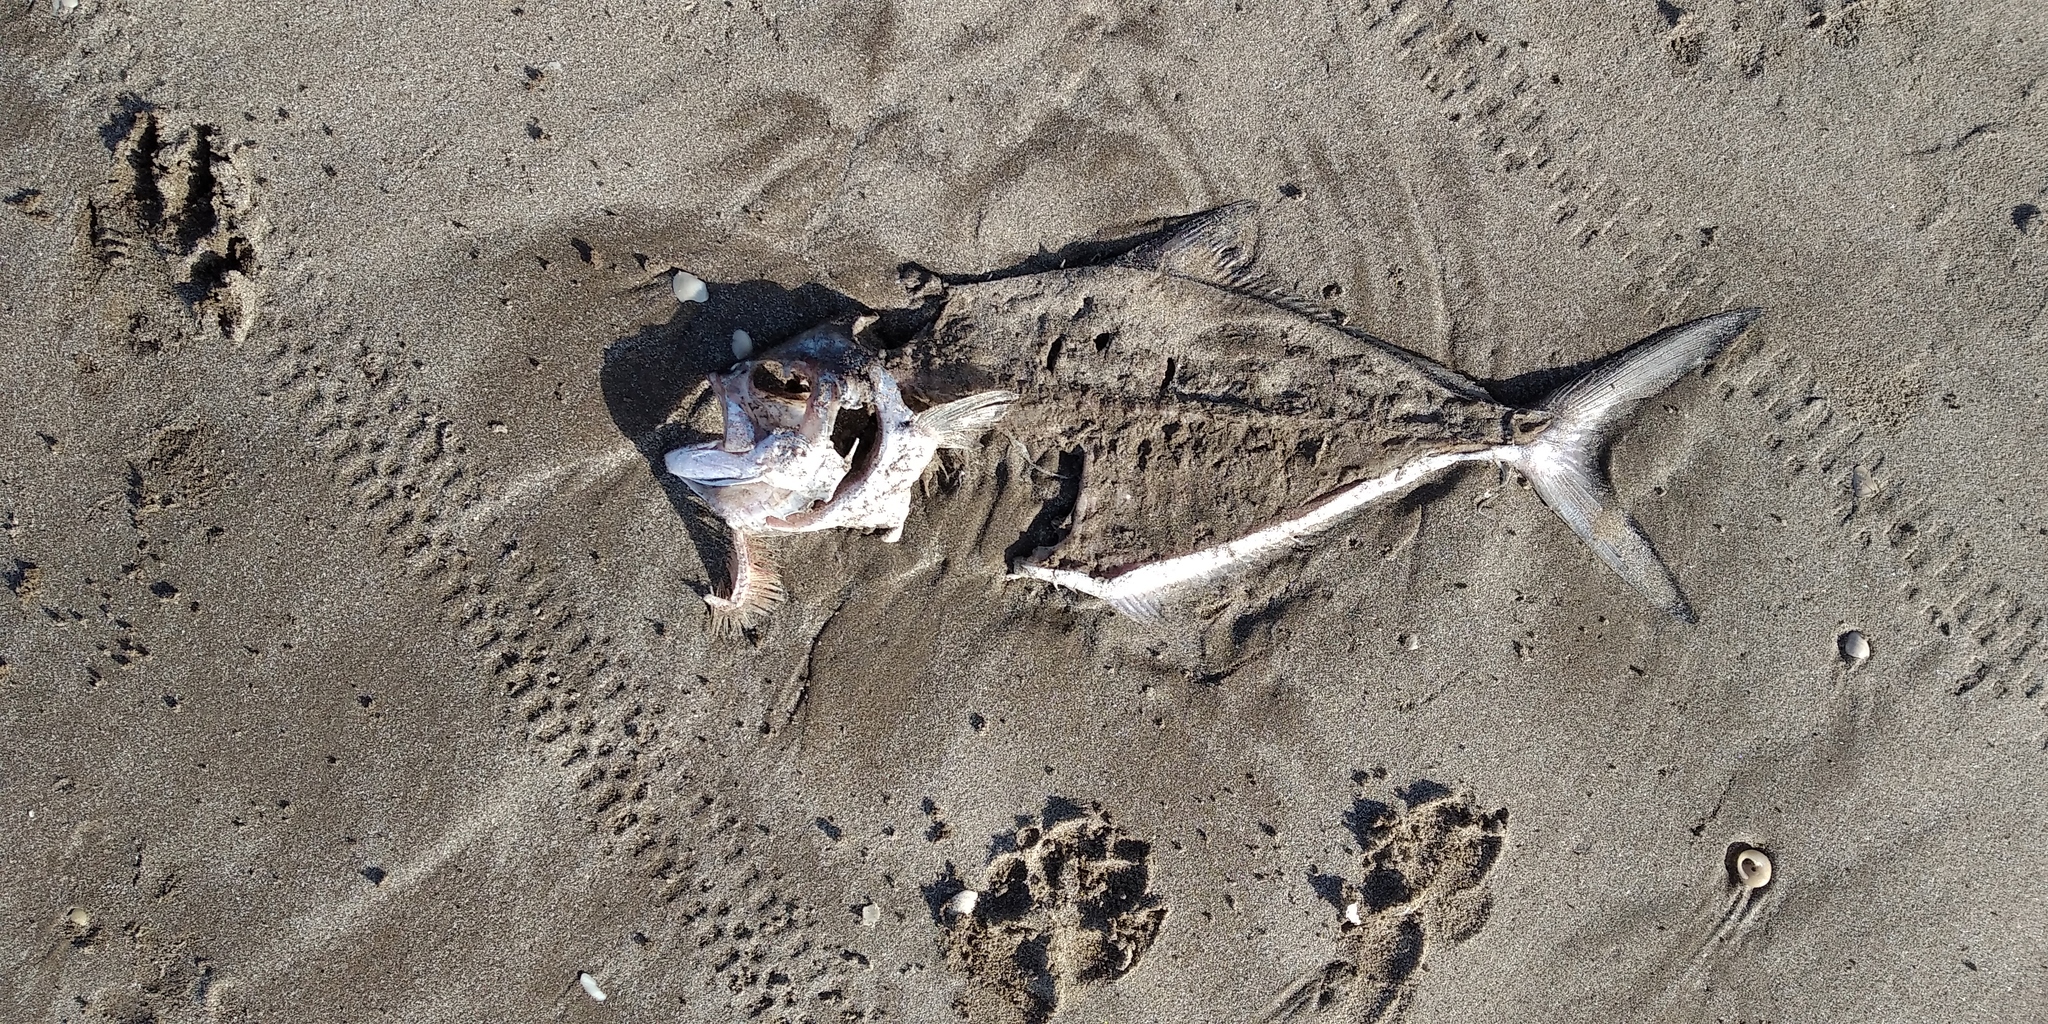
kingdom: Animalia
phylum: Chordata
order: Perciformes
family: Carangidae
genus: Parona
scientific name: Parona signata
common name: Parona leatherjacket
